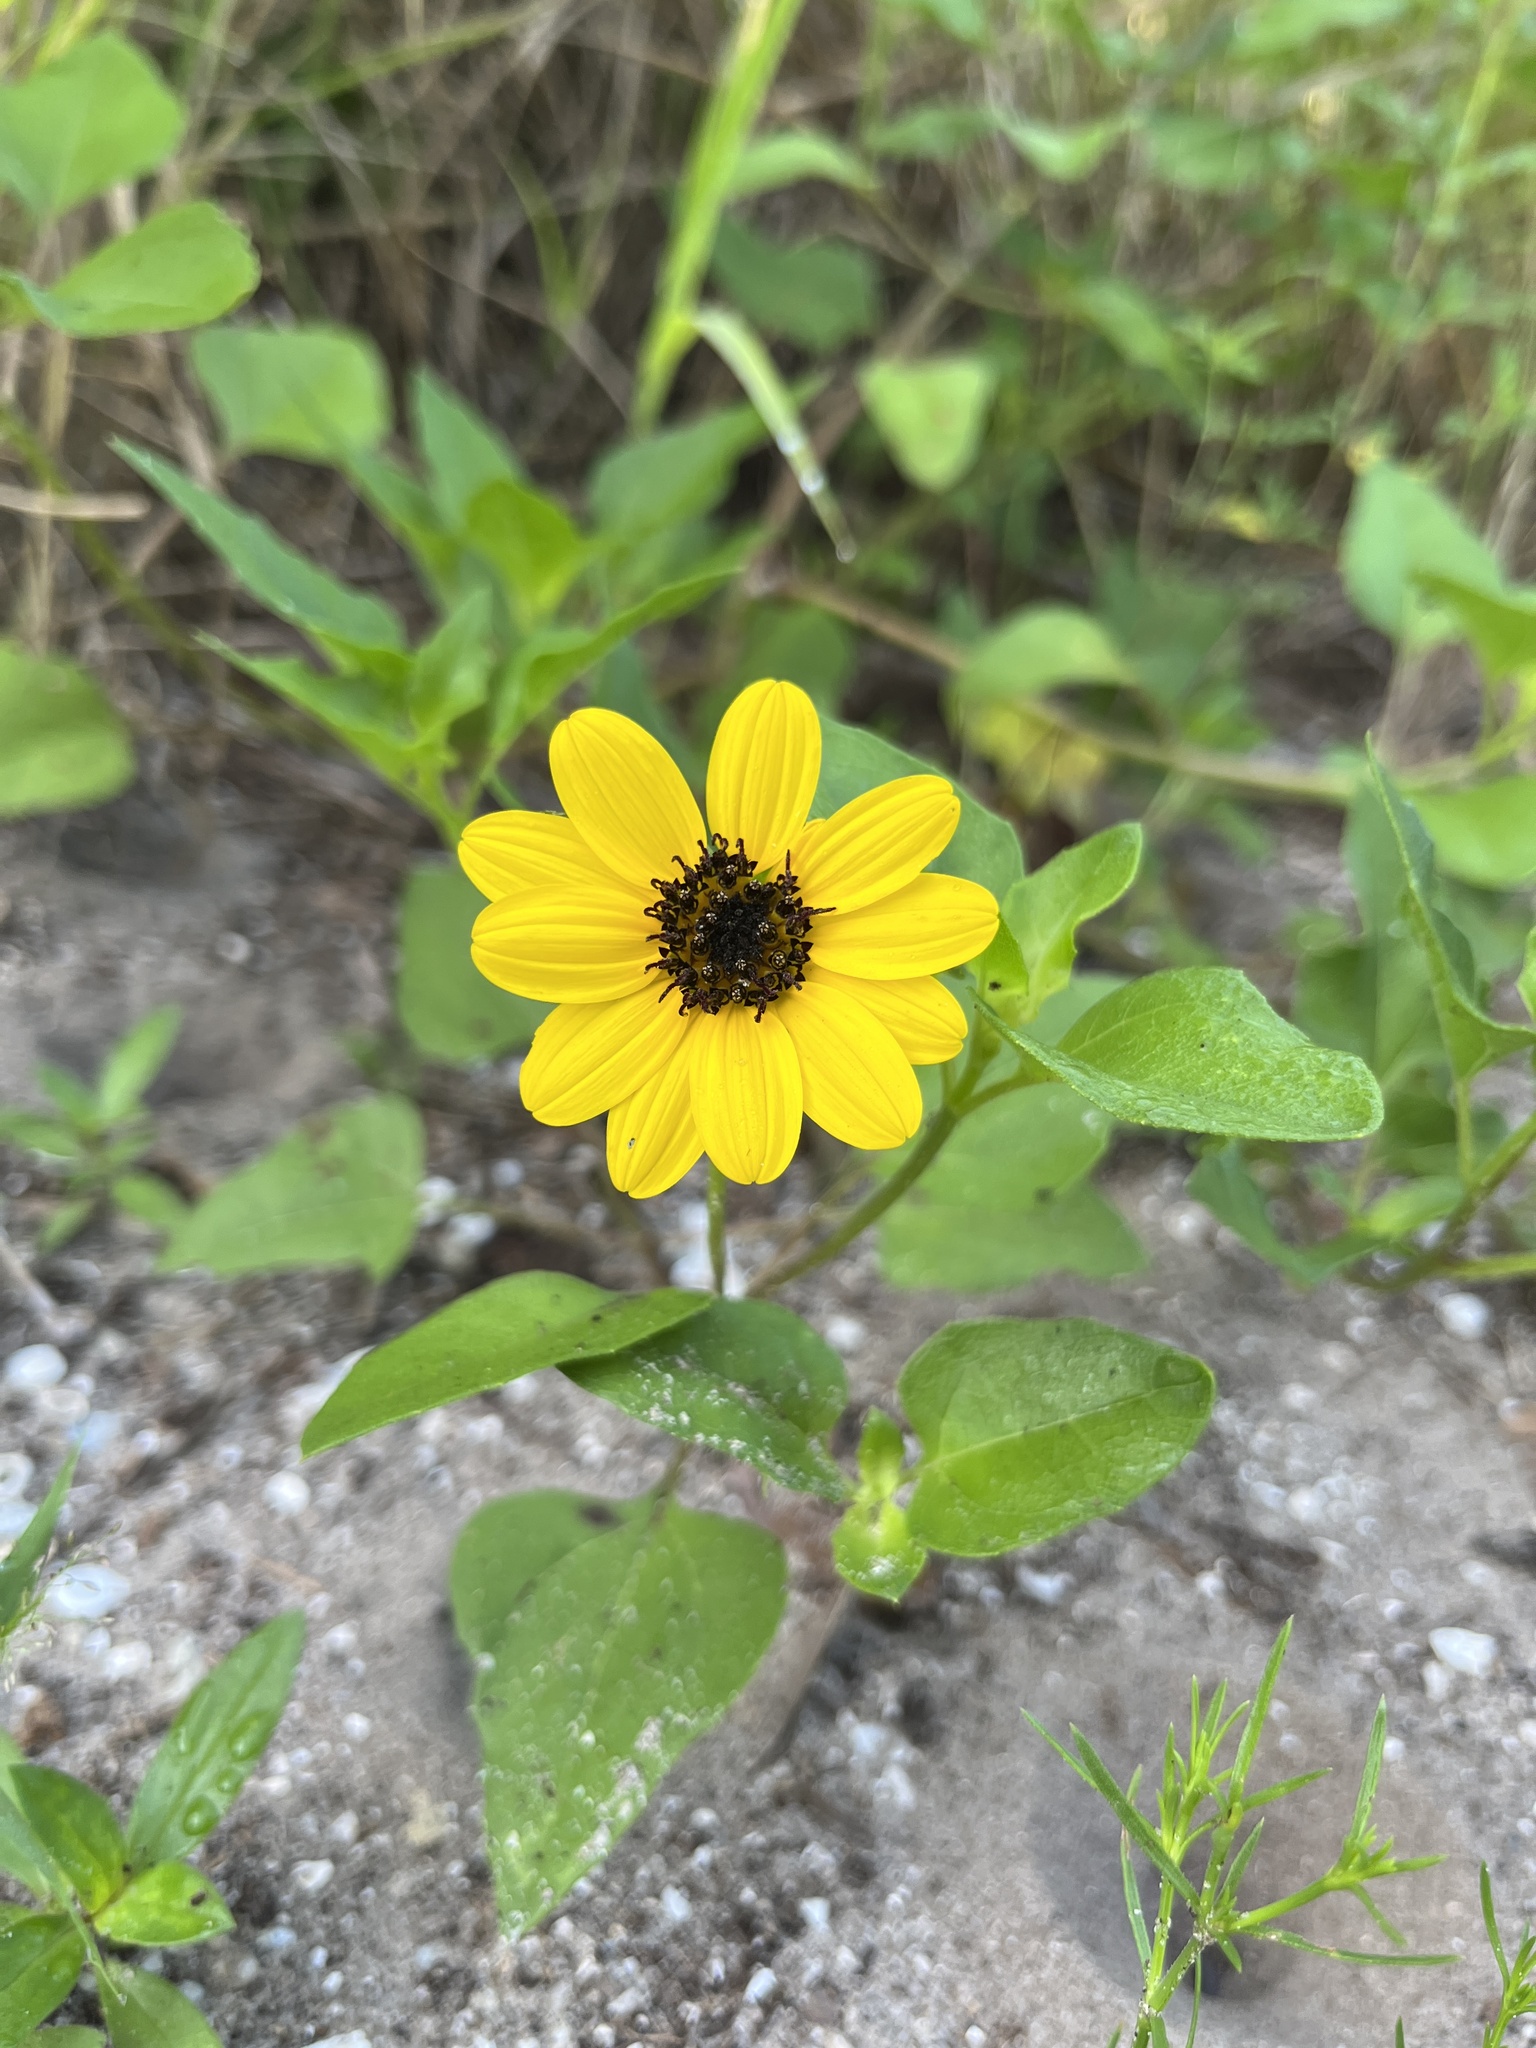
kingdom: Plantae
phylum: Tracheophyta
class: Magnoliopsida
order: Asterales
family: Asteraceae
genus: Helianthus
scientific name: Helianthus debilis
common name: Weak sunflower
